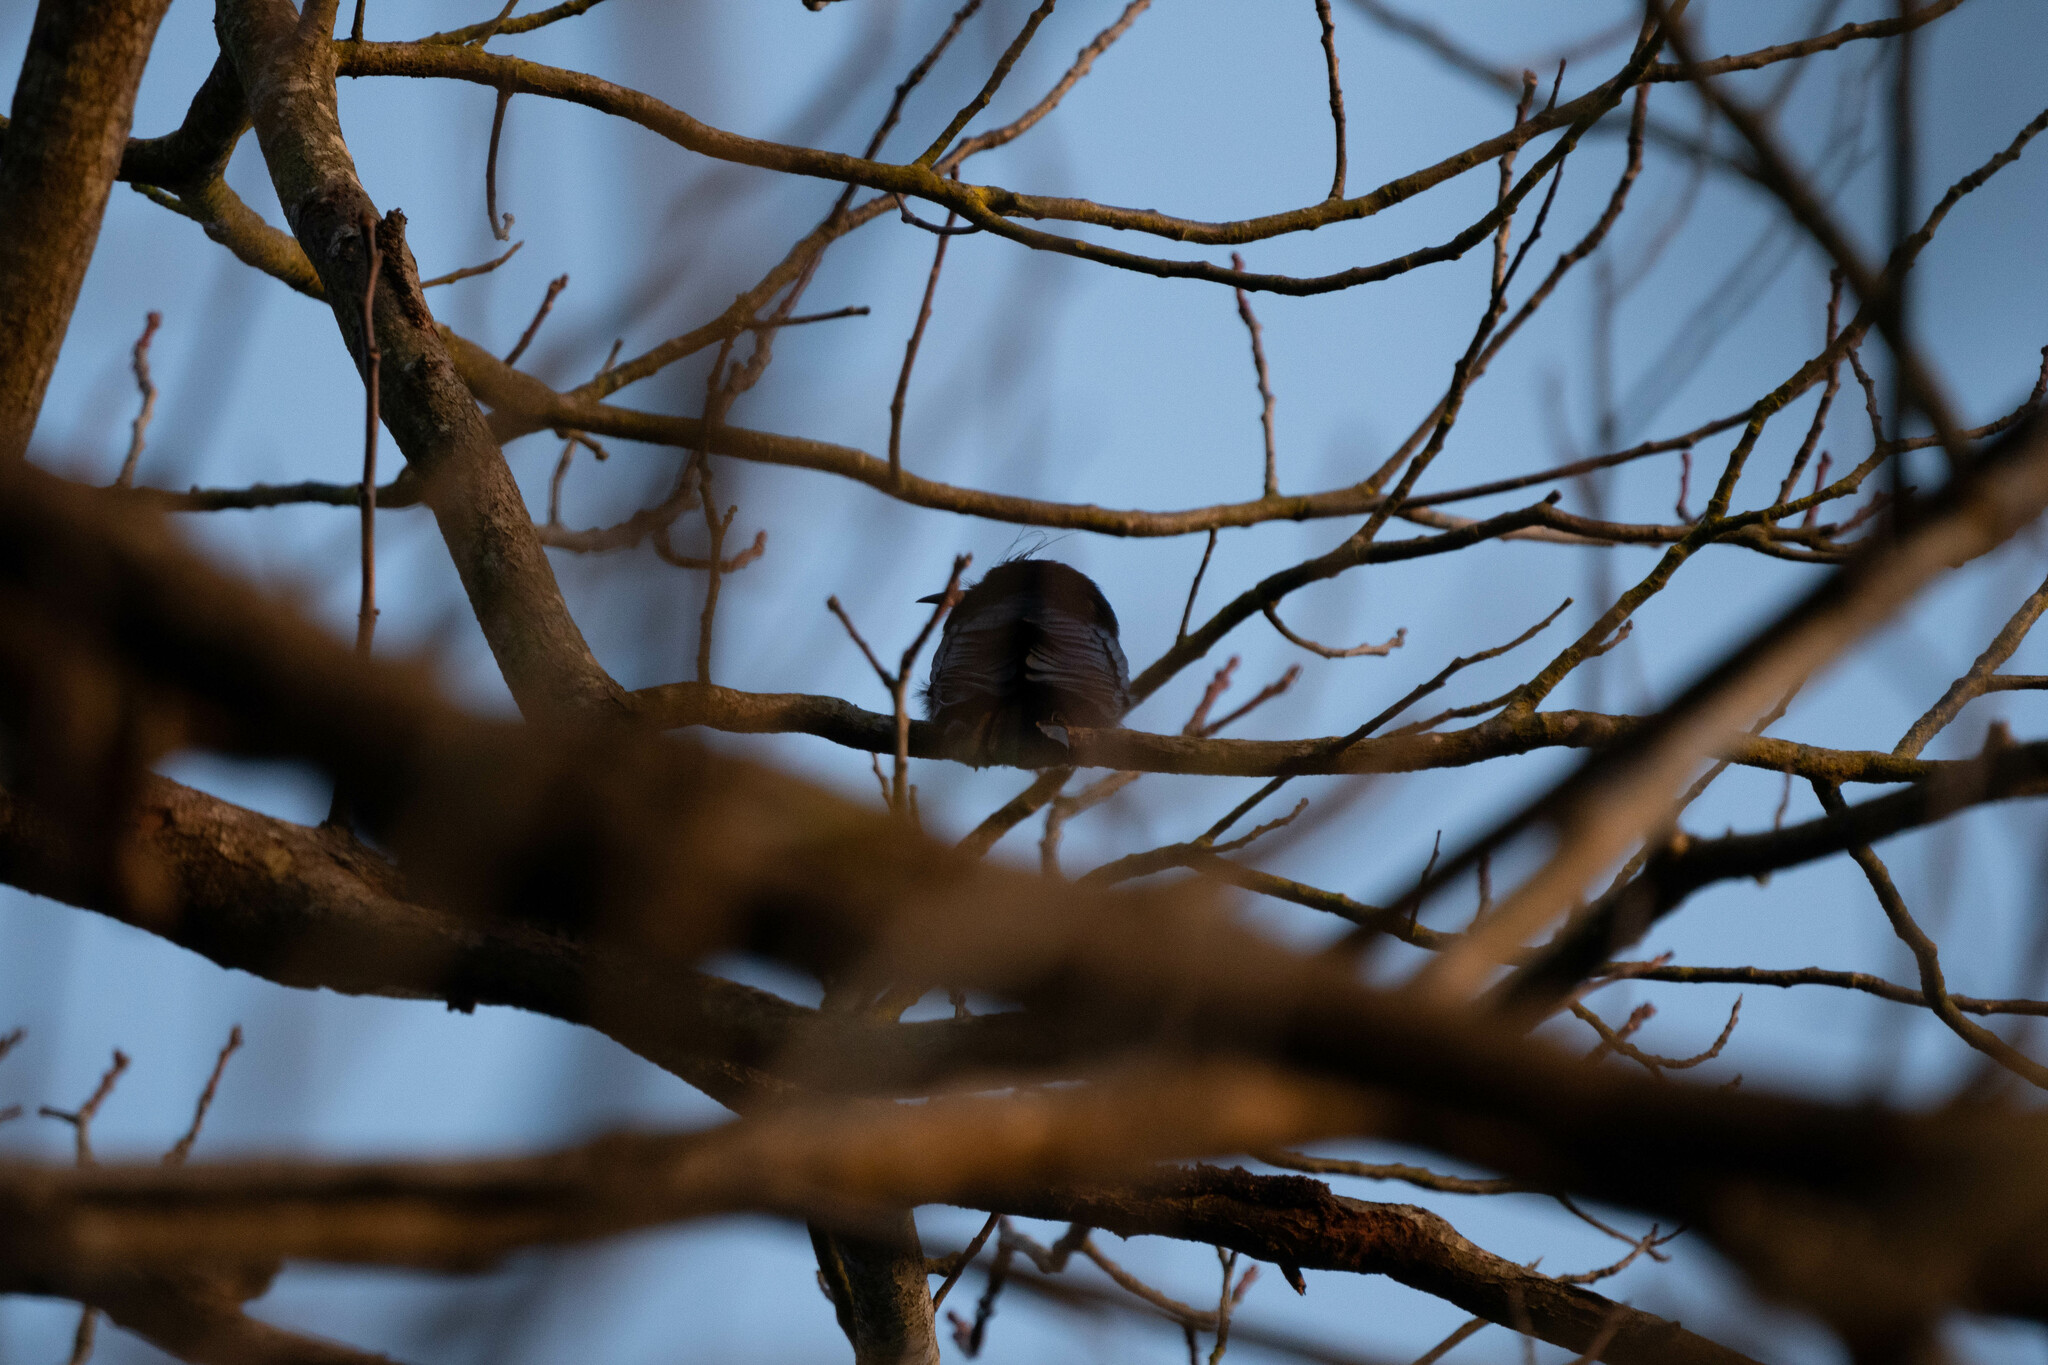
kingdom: Animalia
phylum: Chordata
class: Aves
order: Passeriformes
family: Dicruridae
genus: Dicrurus
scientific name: Dicrurus hottentottus
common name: Hair-crested drongo
